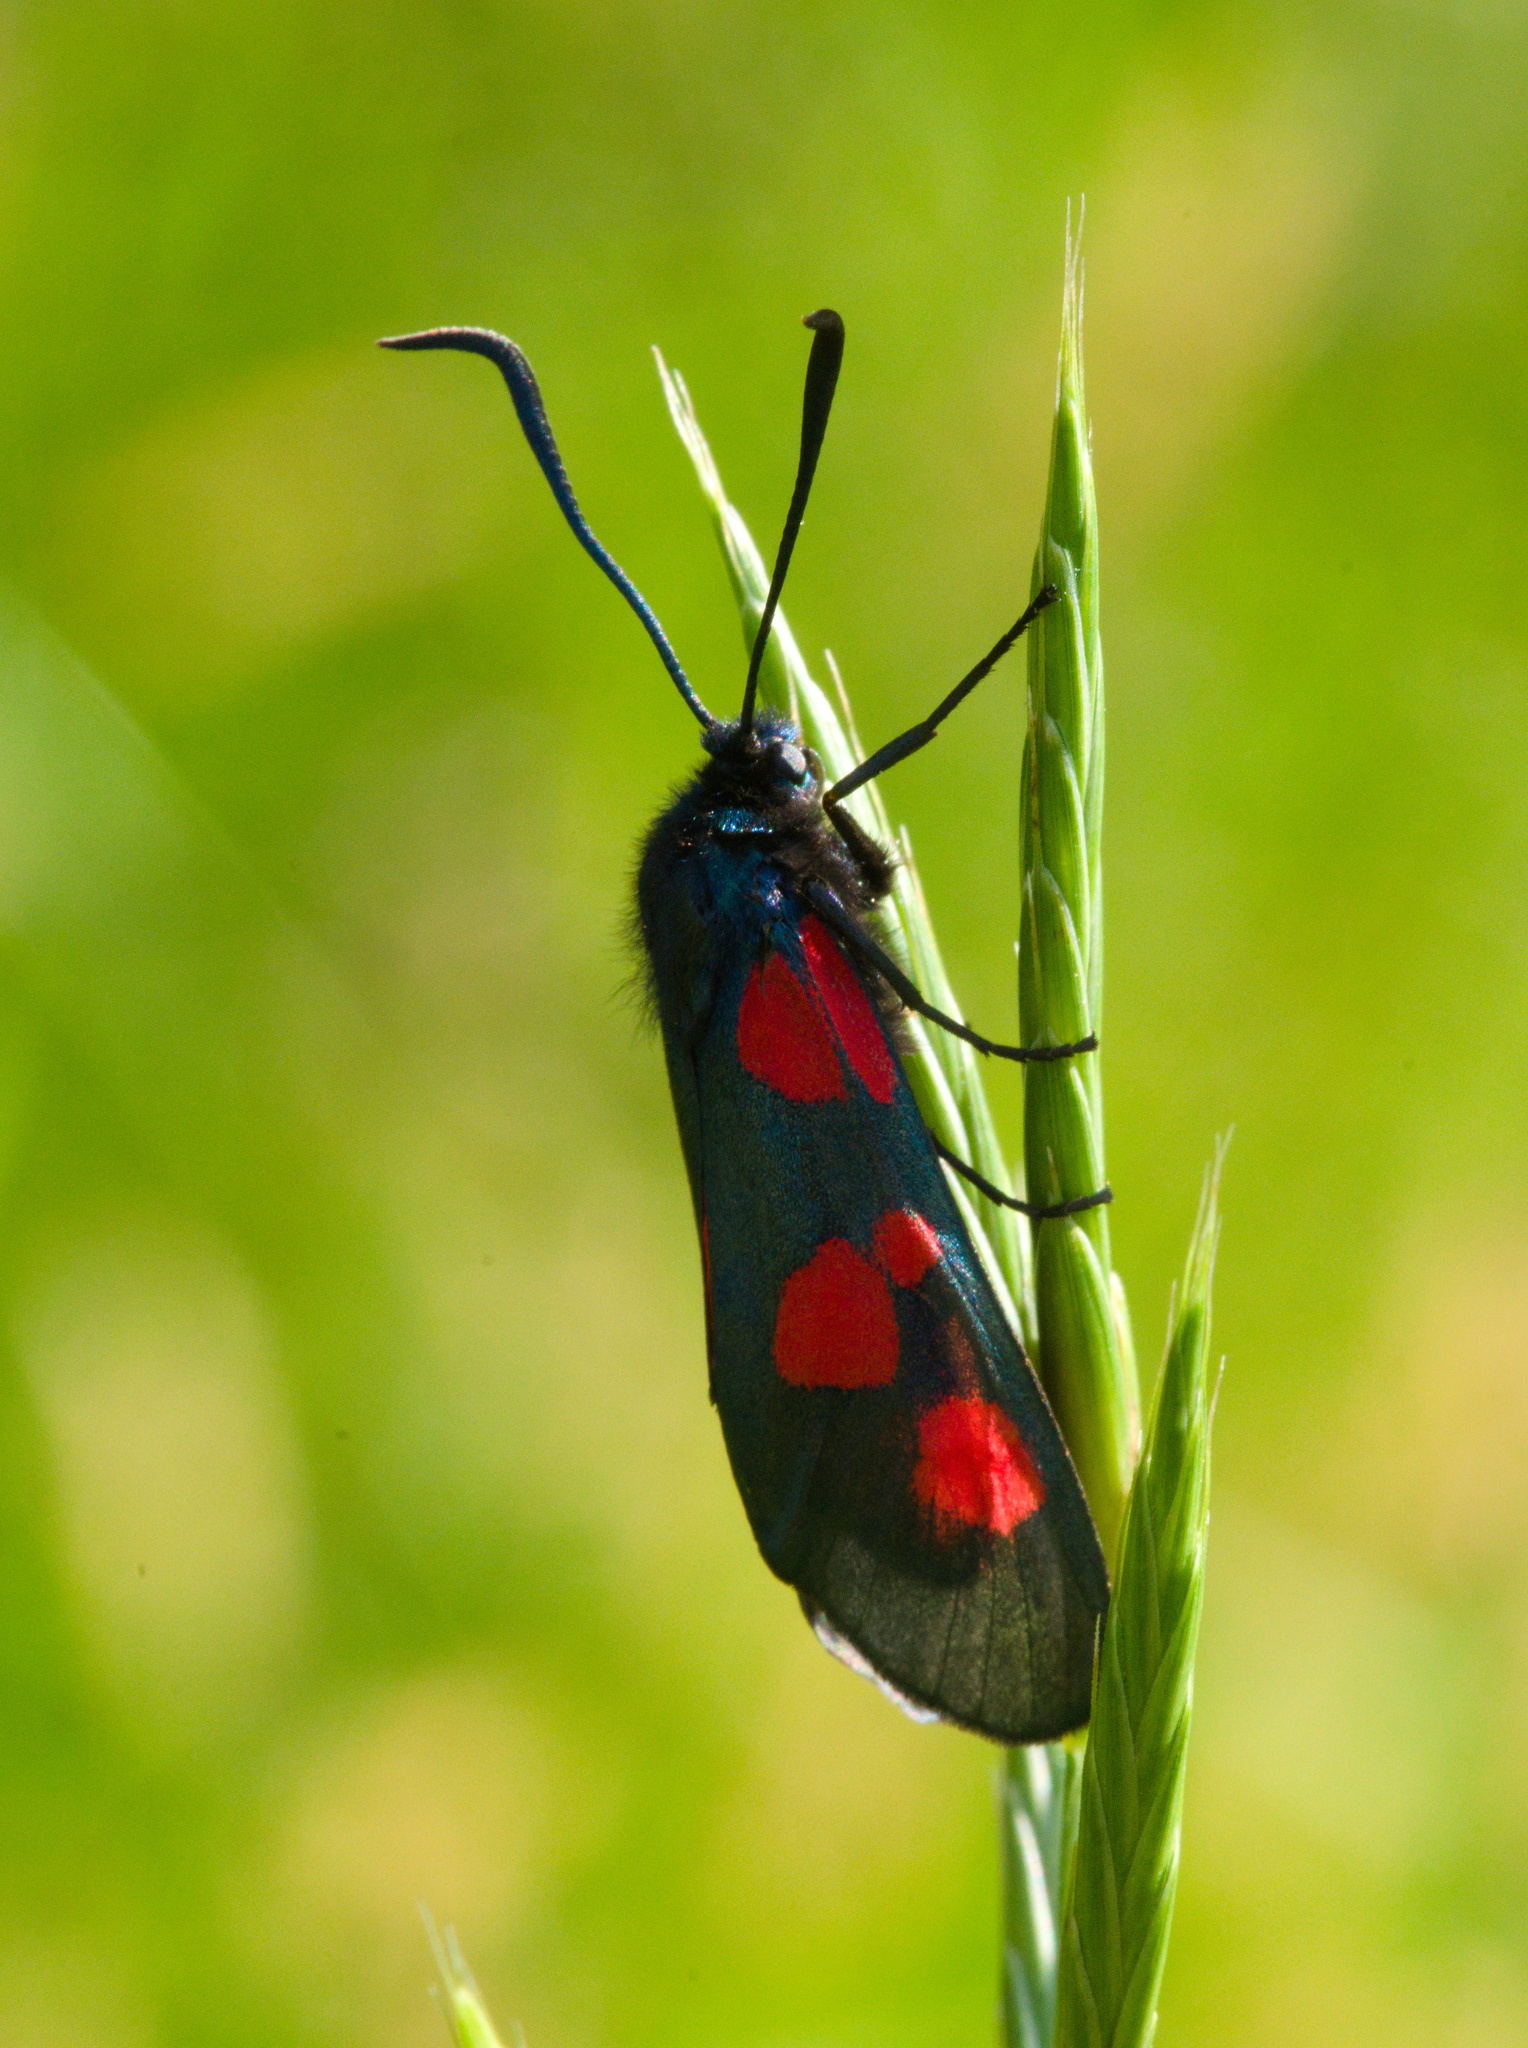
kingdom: Animalia
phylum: Arthropoda
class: Insecta
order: Lepidoptera
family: Zygaenidae
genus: Zygaena
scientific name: Zygaena viciae
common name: New forest burnet
